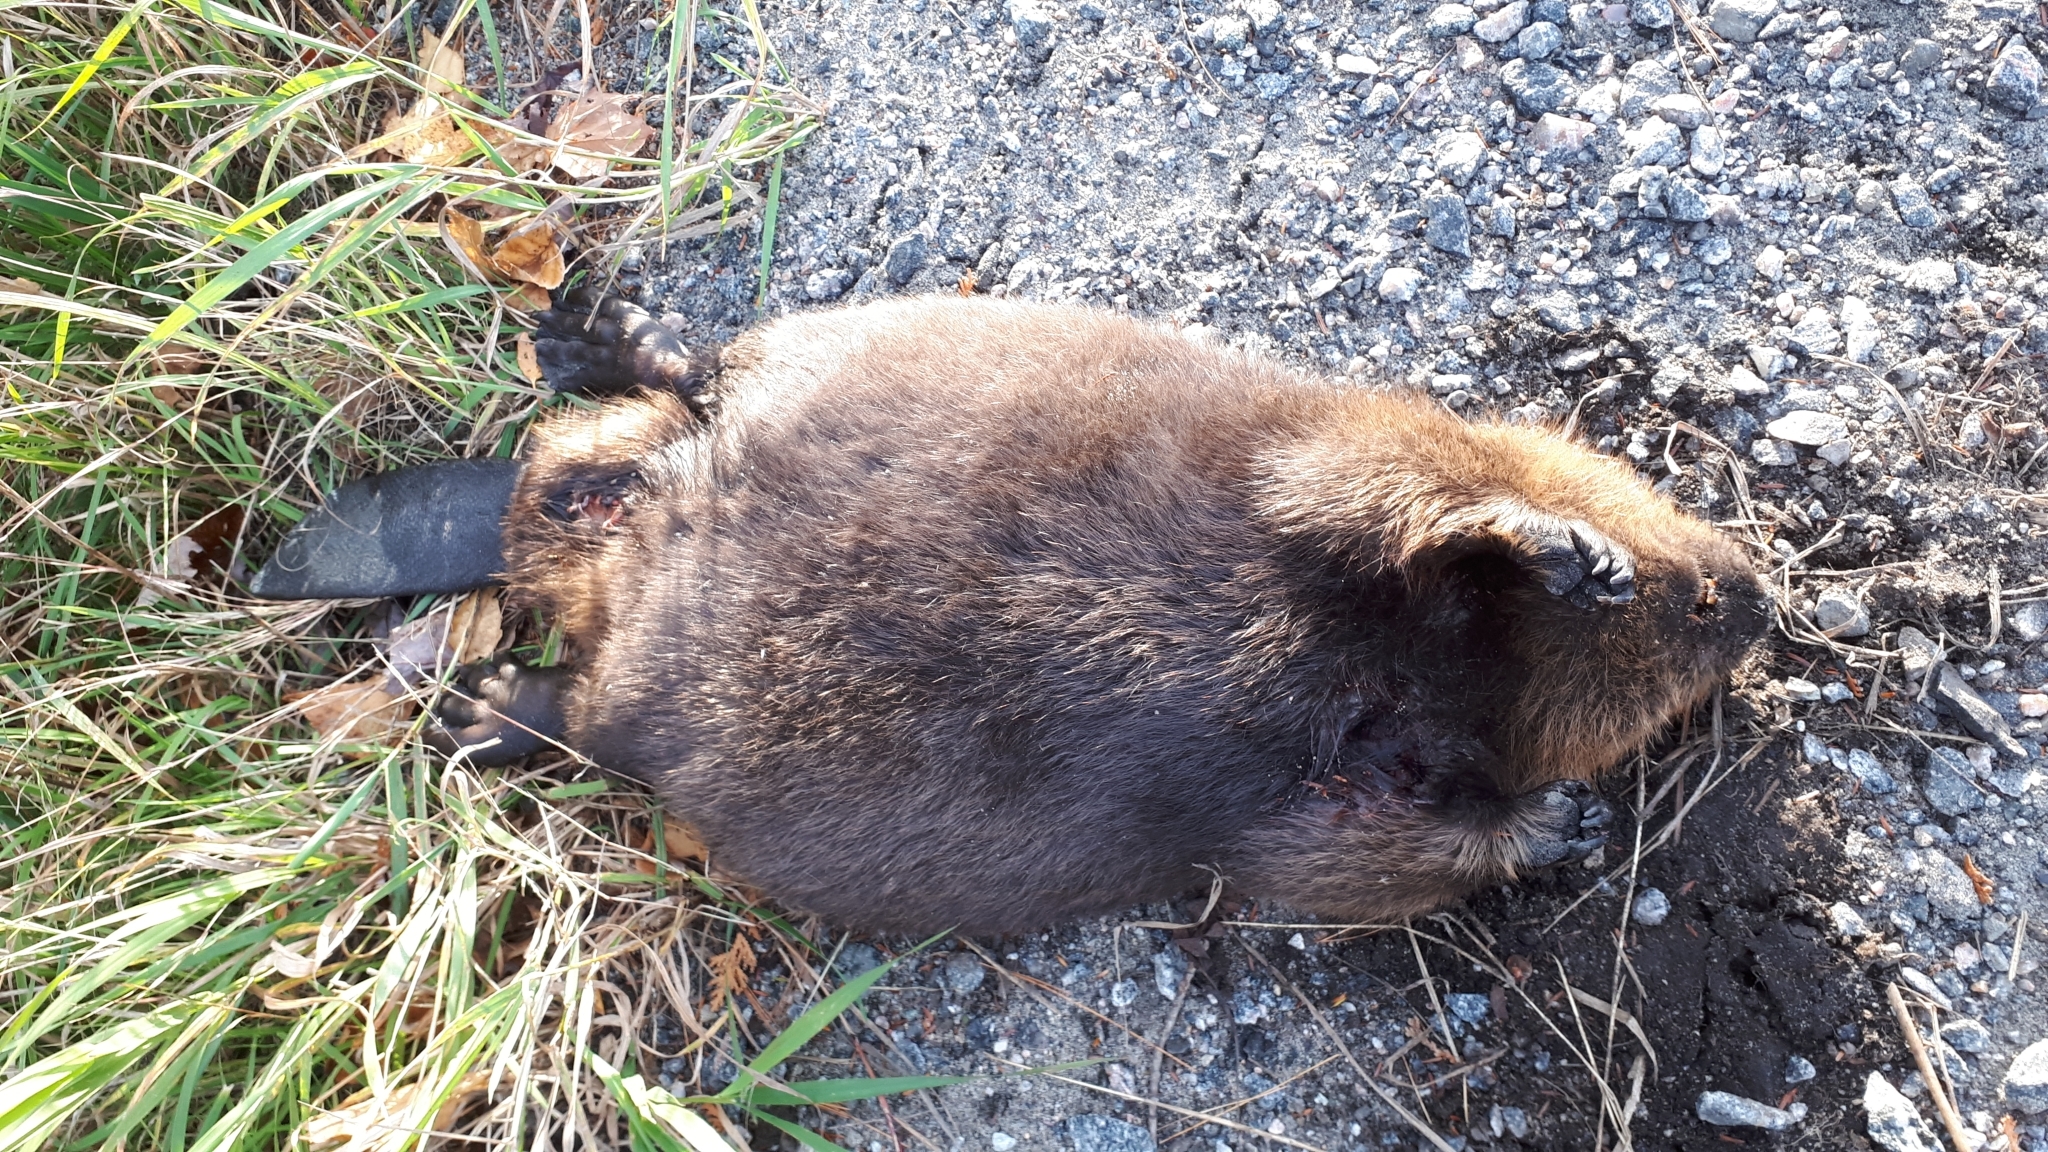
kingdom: Animalia
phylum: Chordata
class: Mammalia
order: Rodentia
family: Castoridae
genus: Castor
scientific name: Castor canadensis
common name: American beaver
